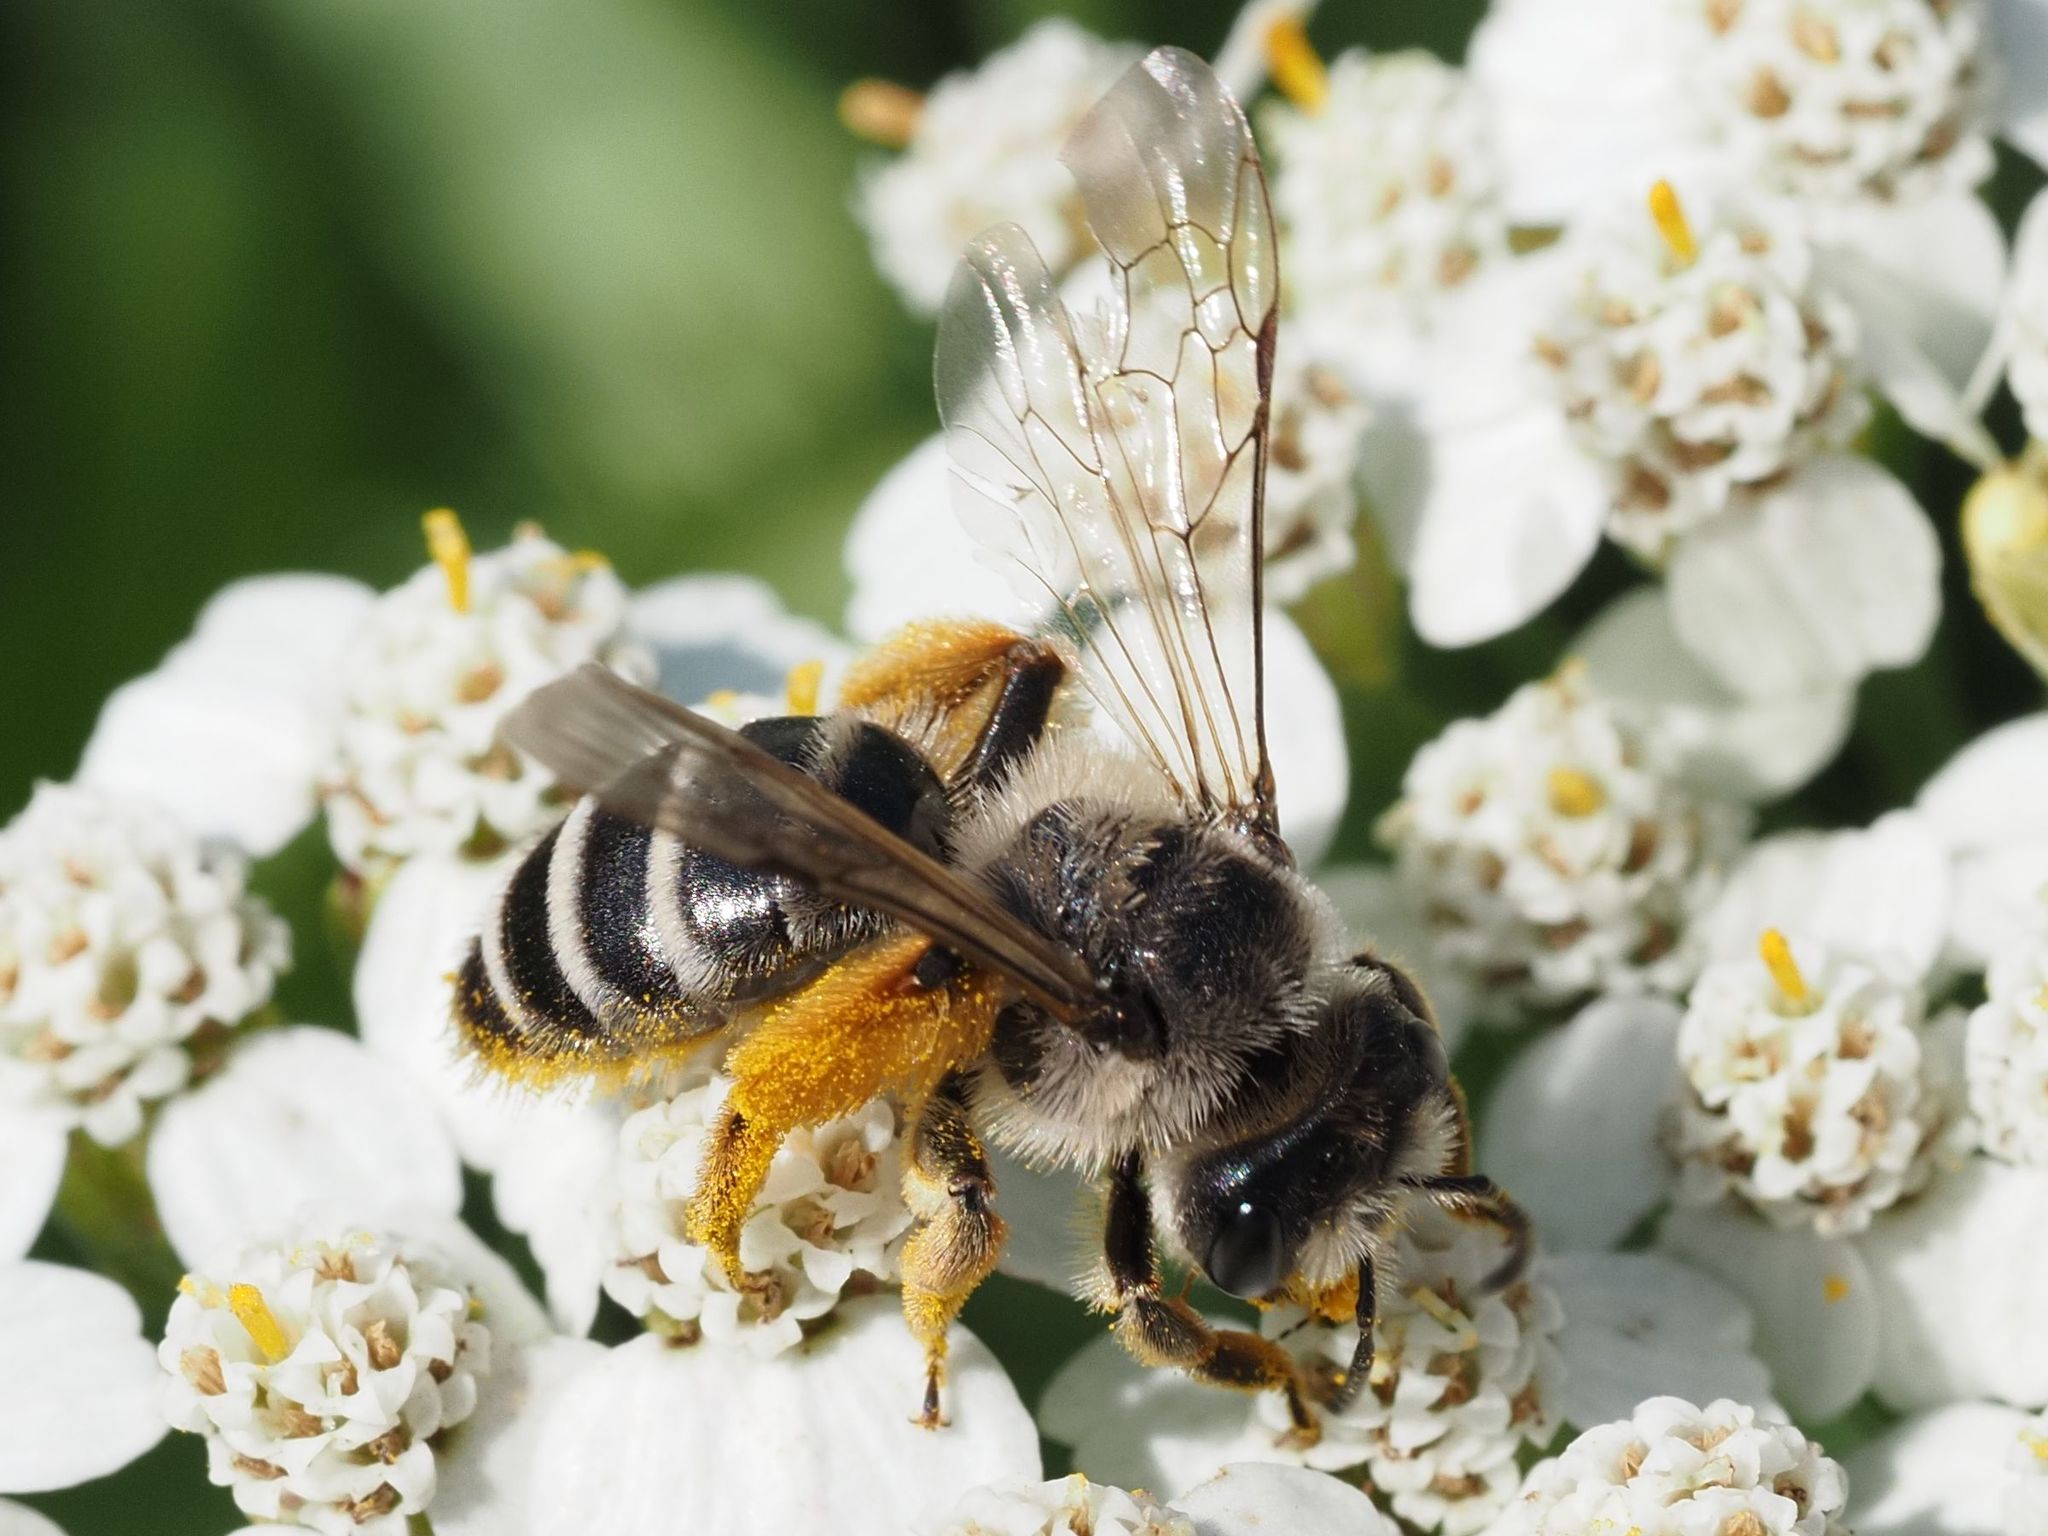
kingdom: Animalia
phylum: Arthropoda
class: Insecta
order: Hymenoptera
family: Andrenidae
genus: Andrena
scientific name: Andrena flavipes
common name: Yellow-legged mining bee
